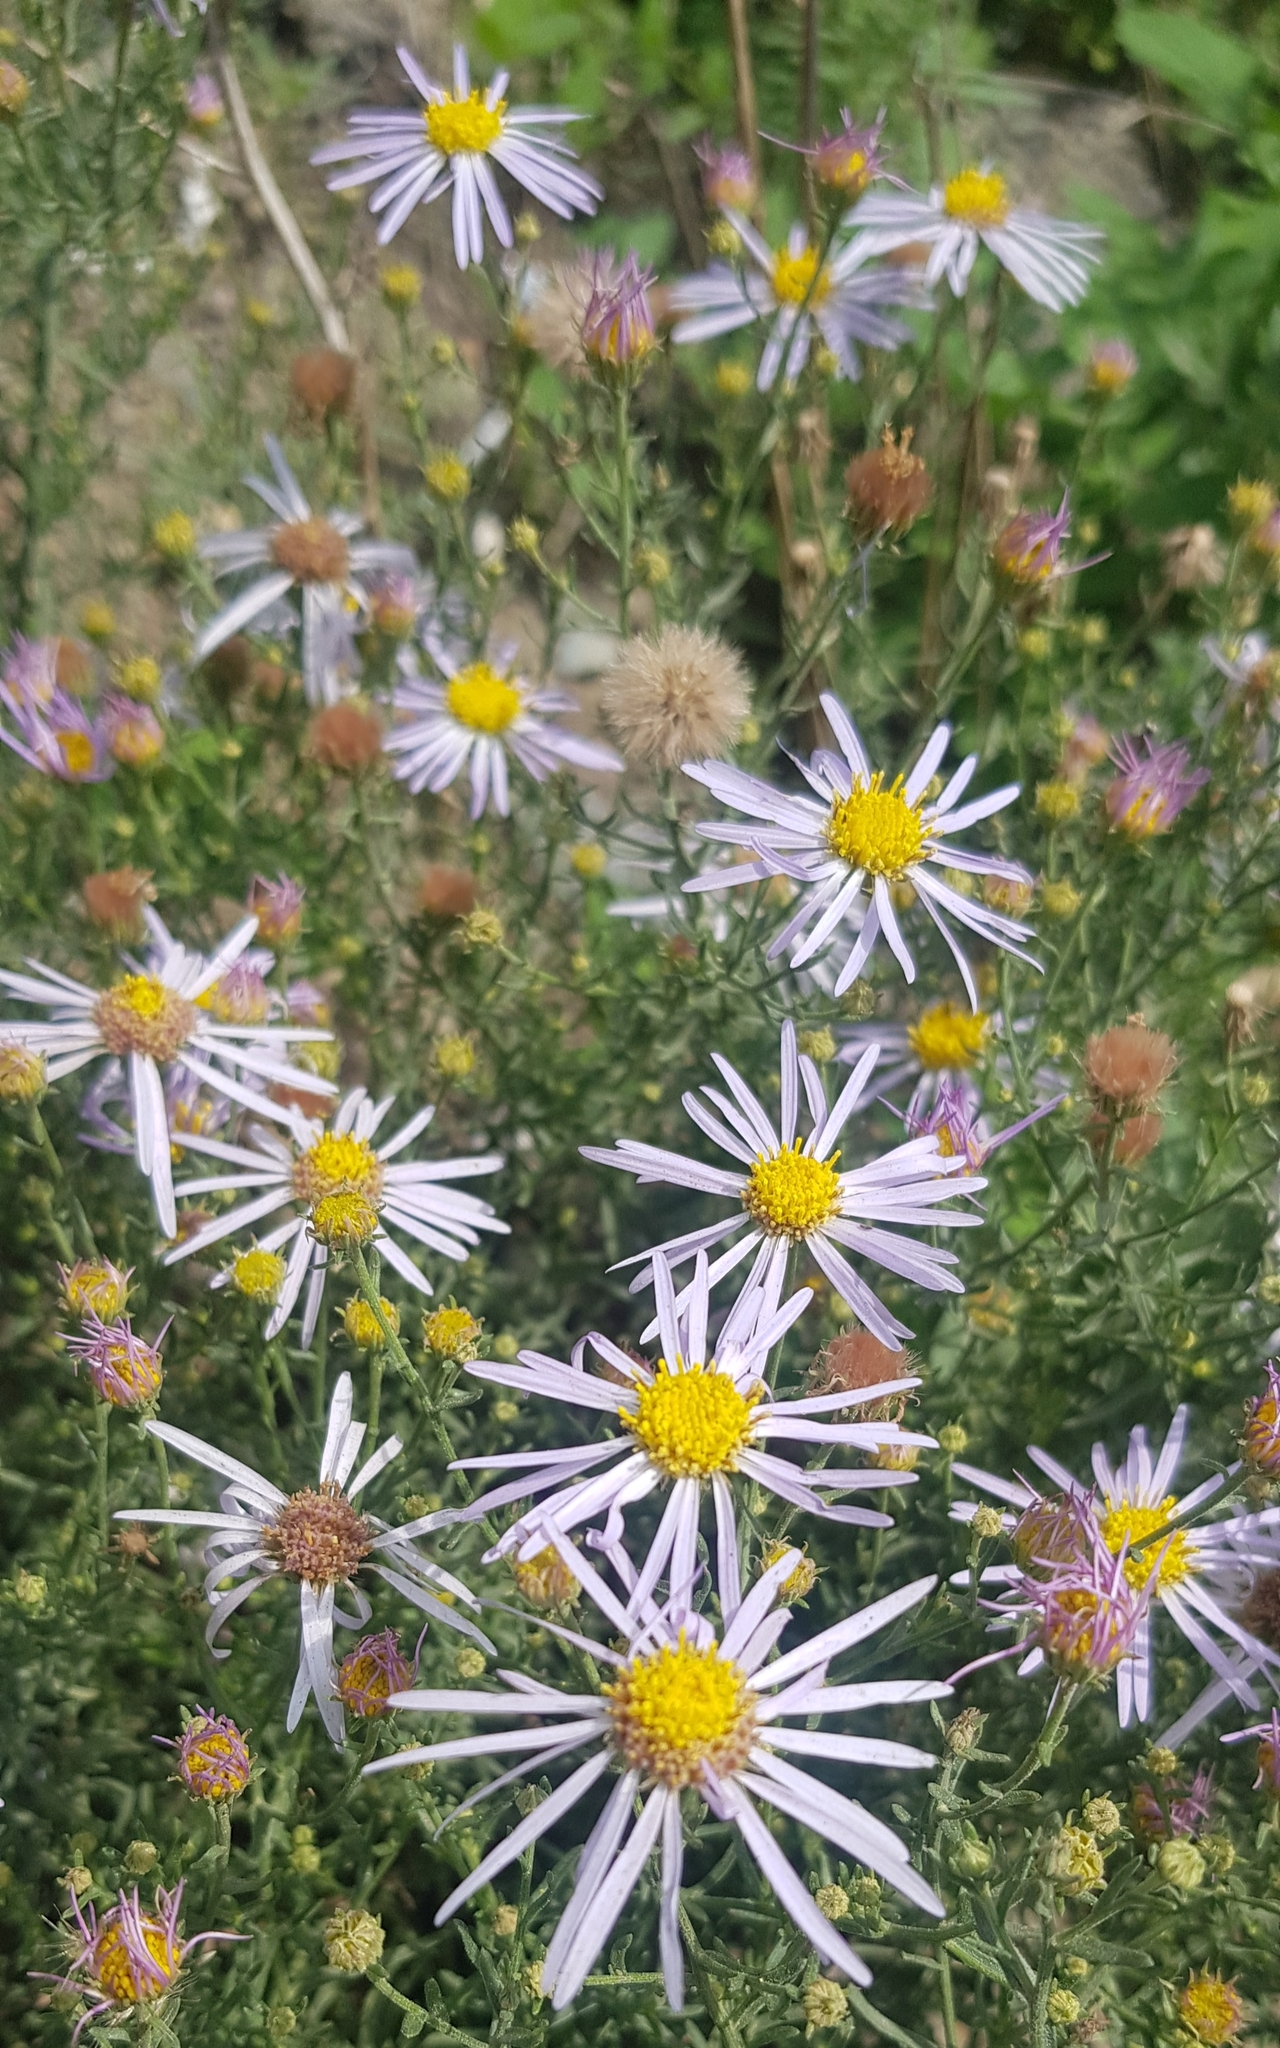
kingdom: Plantae
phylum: Tracheophyta
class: Magnoliopsida
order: Asterales
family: Asteraceae
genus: Heteropappus
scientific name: Heteropappus altaicus
